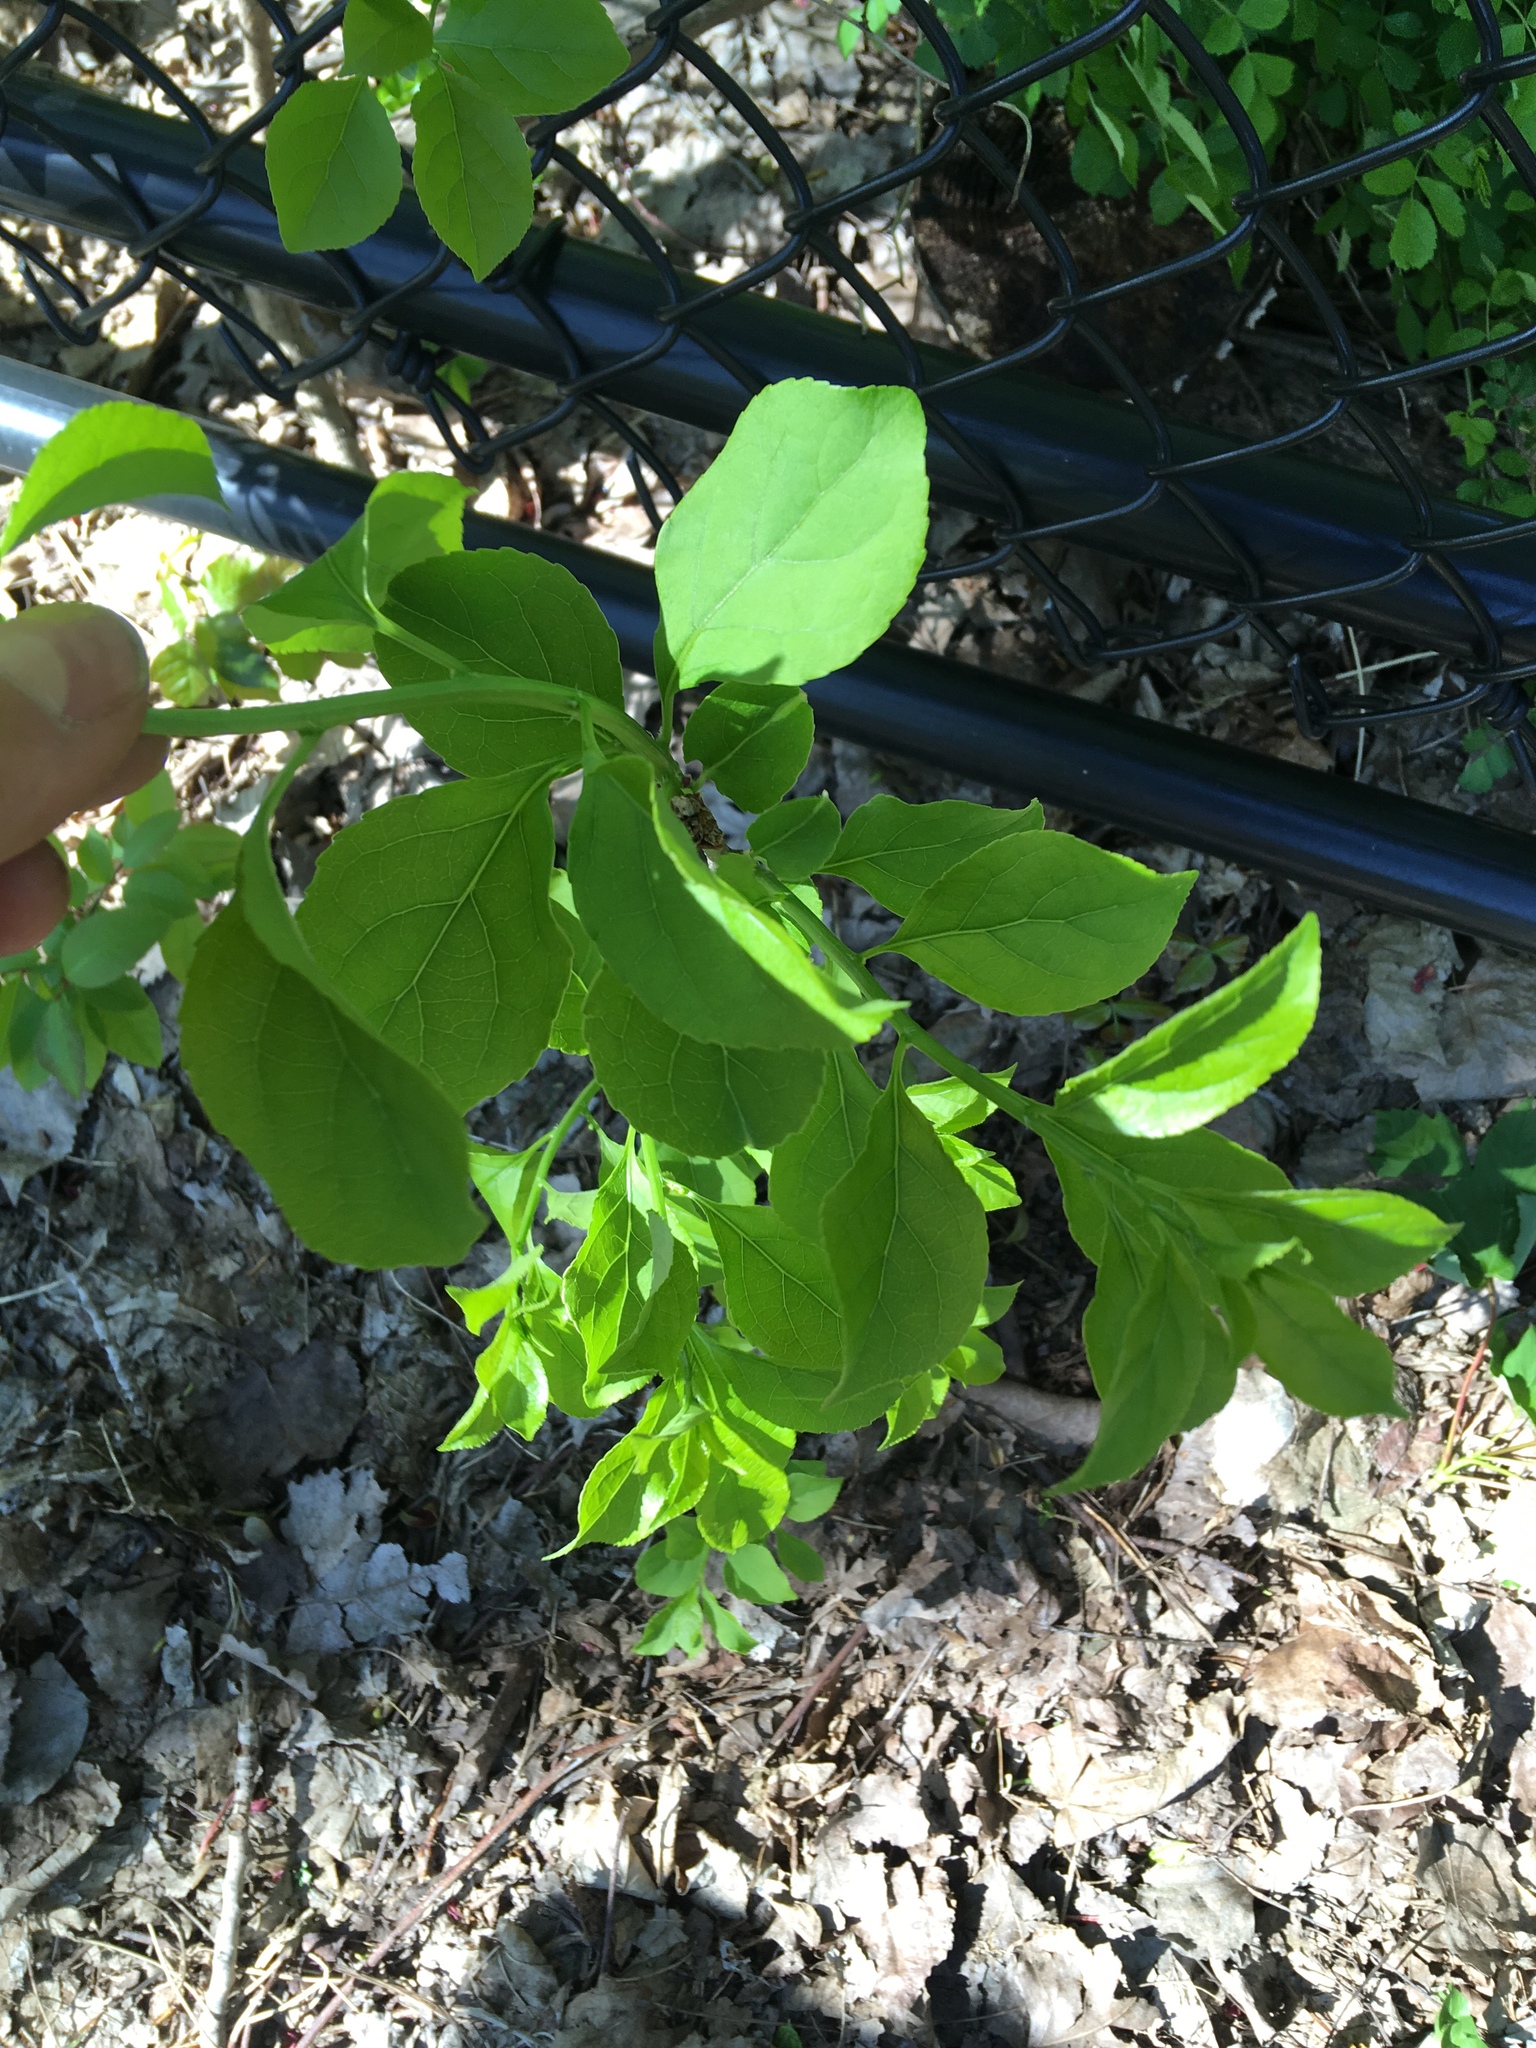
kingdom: Plantae
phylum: Tracheophyta
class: Magnoliopsida
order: Celastrales
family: Celastraceae
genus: Celastrus
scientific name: Celastrus orbiculatus
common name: Oriental bittersweet
